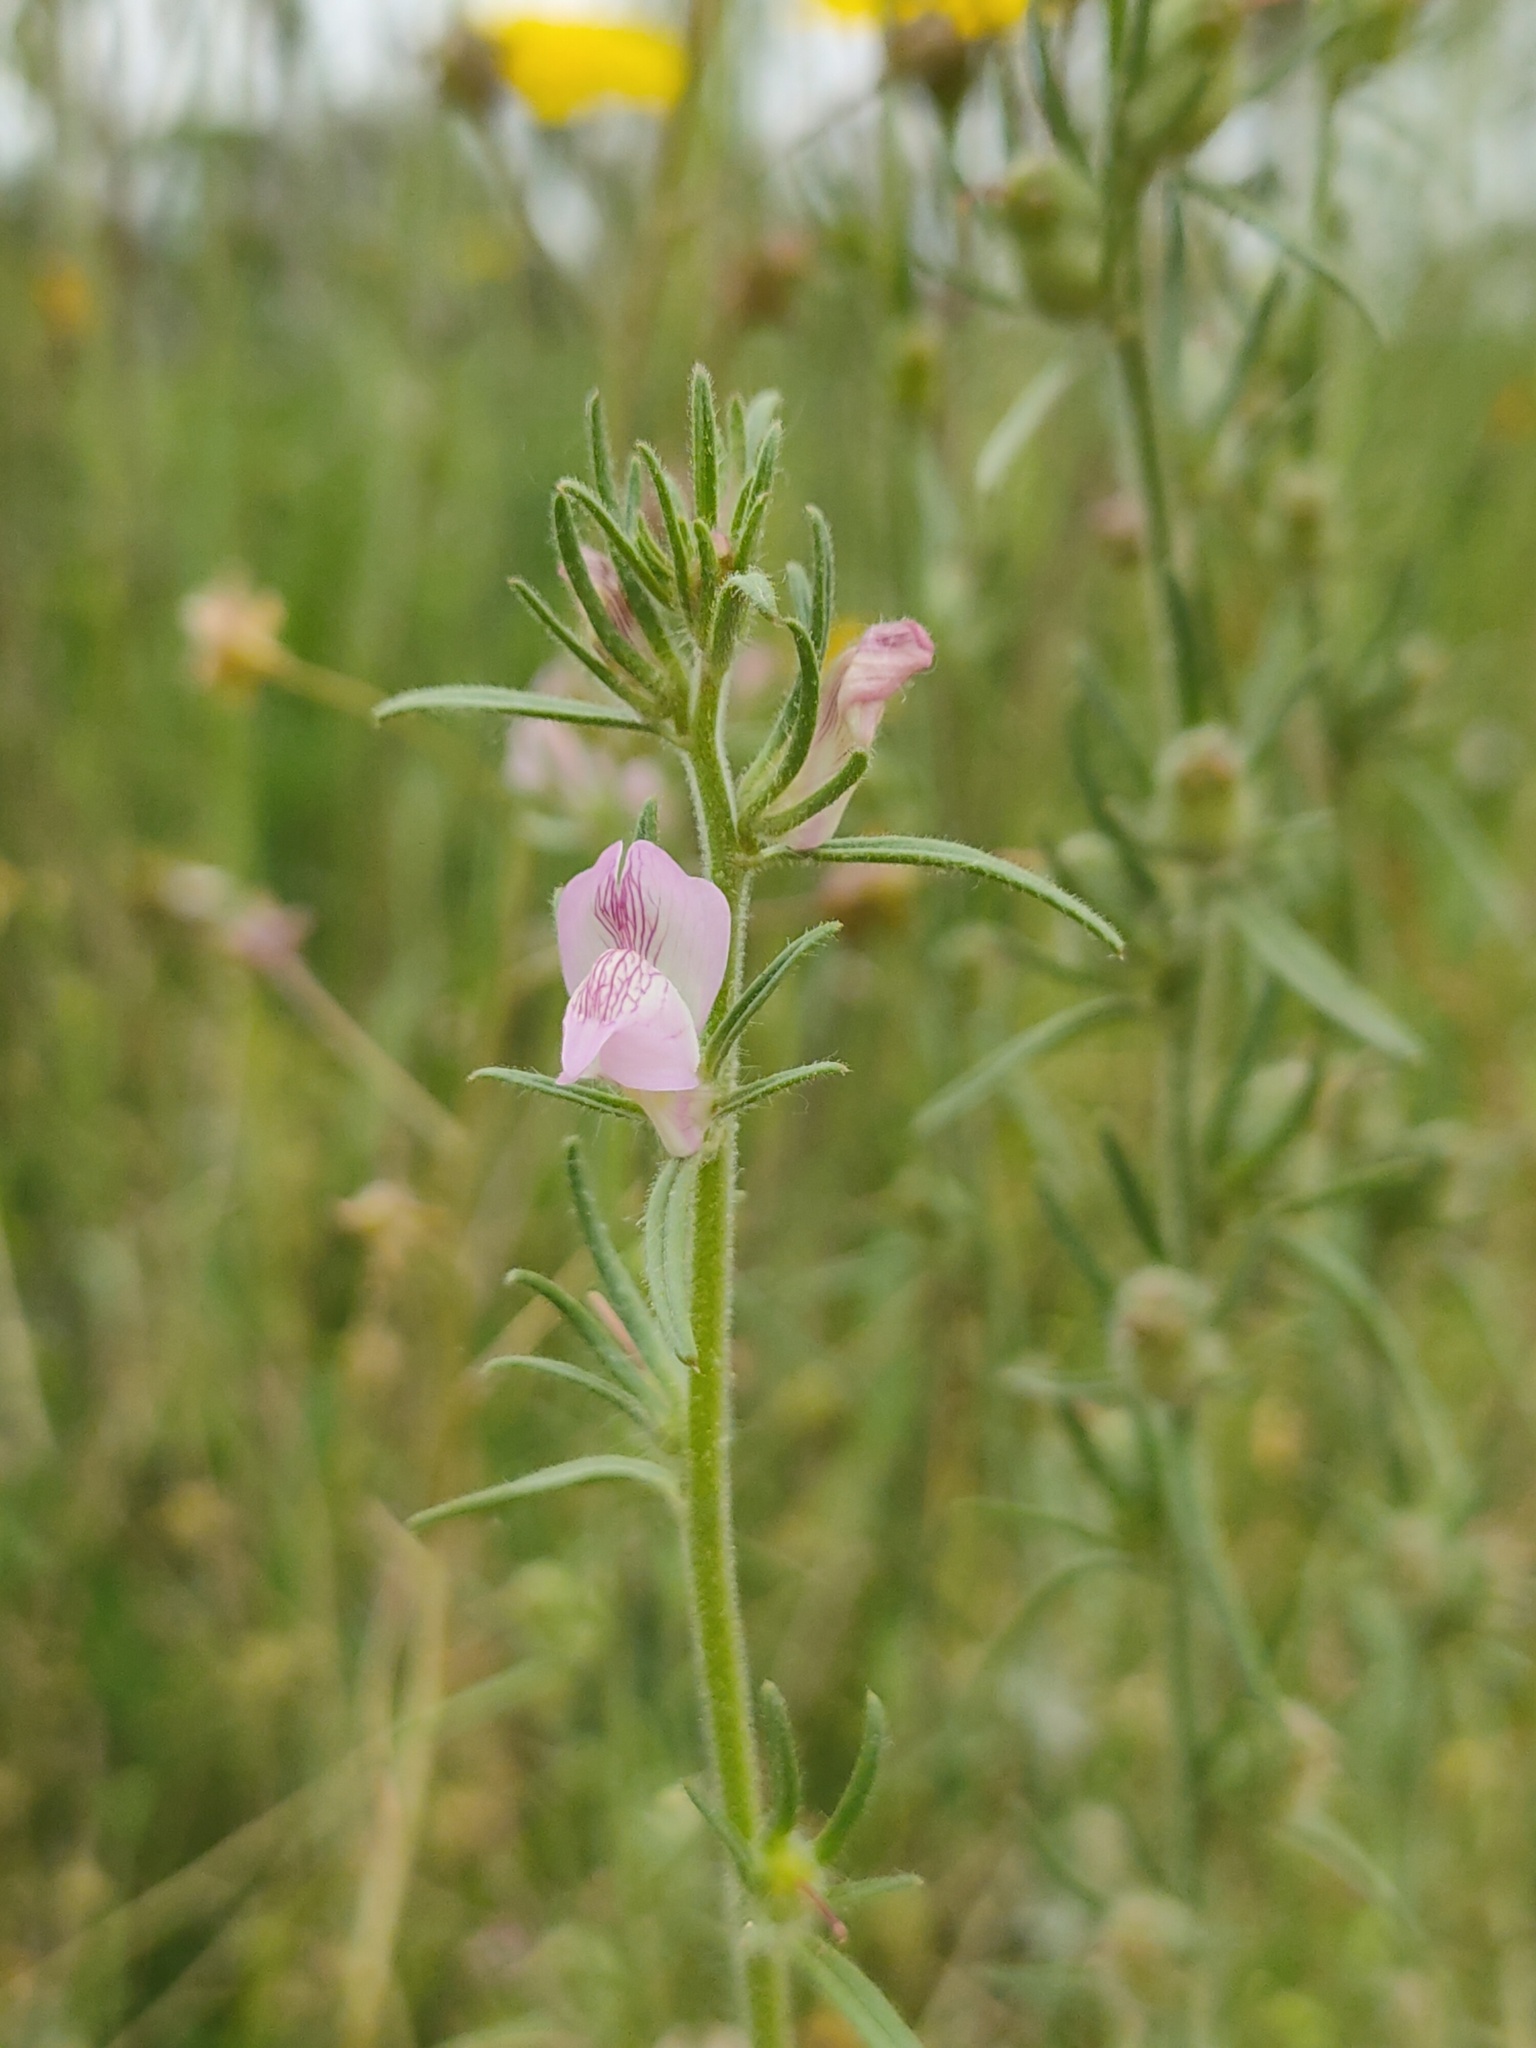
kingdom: Plantae
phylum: Tracheophyta
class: Magnoliopsida
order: Lamiales
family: Plantaginaceae
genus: Misopates
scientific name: Misopates orontium
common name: Weasel's-snout
